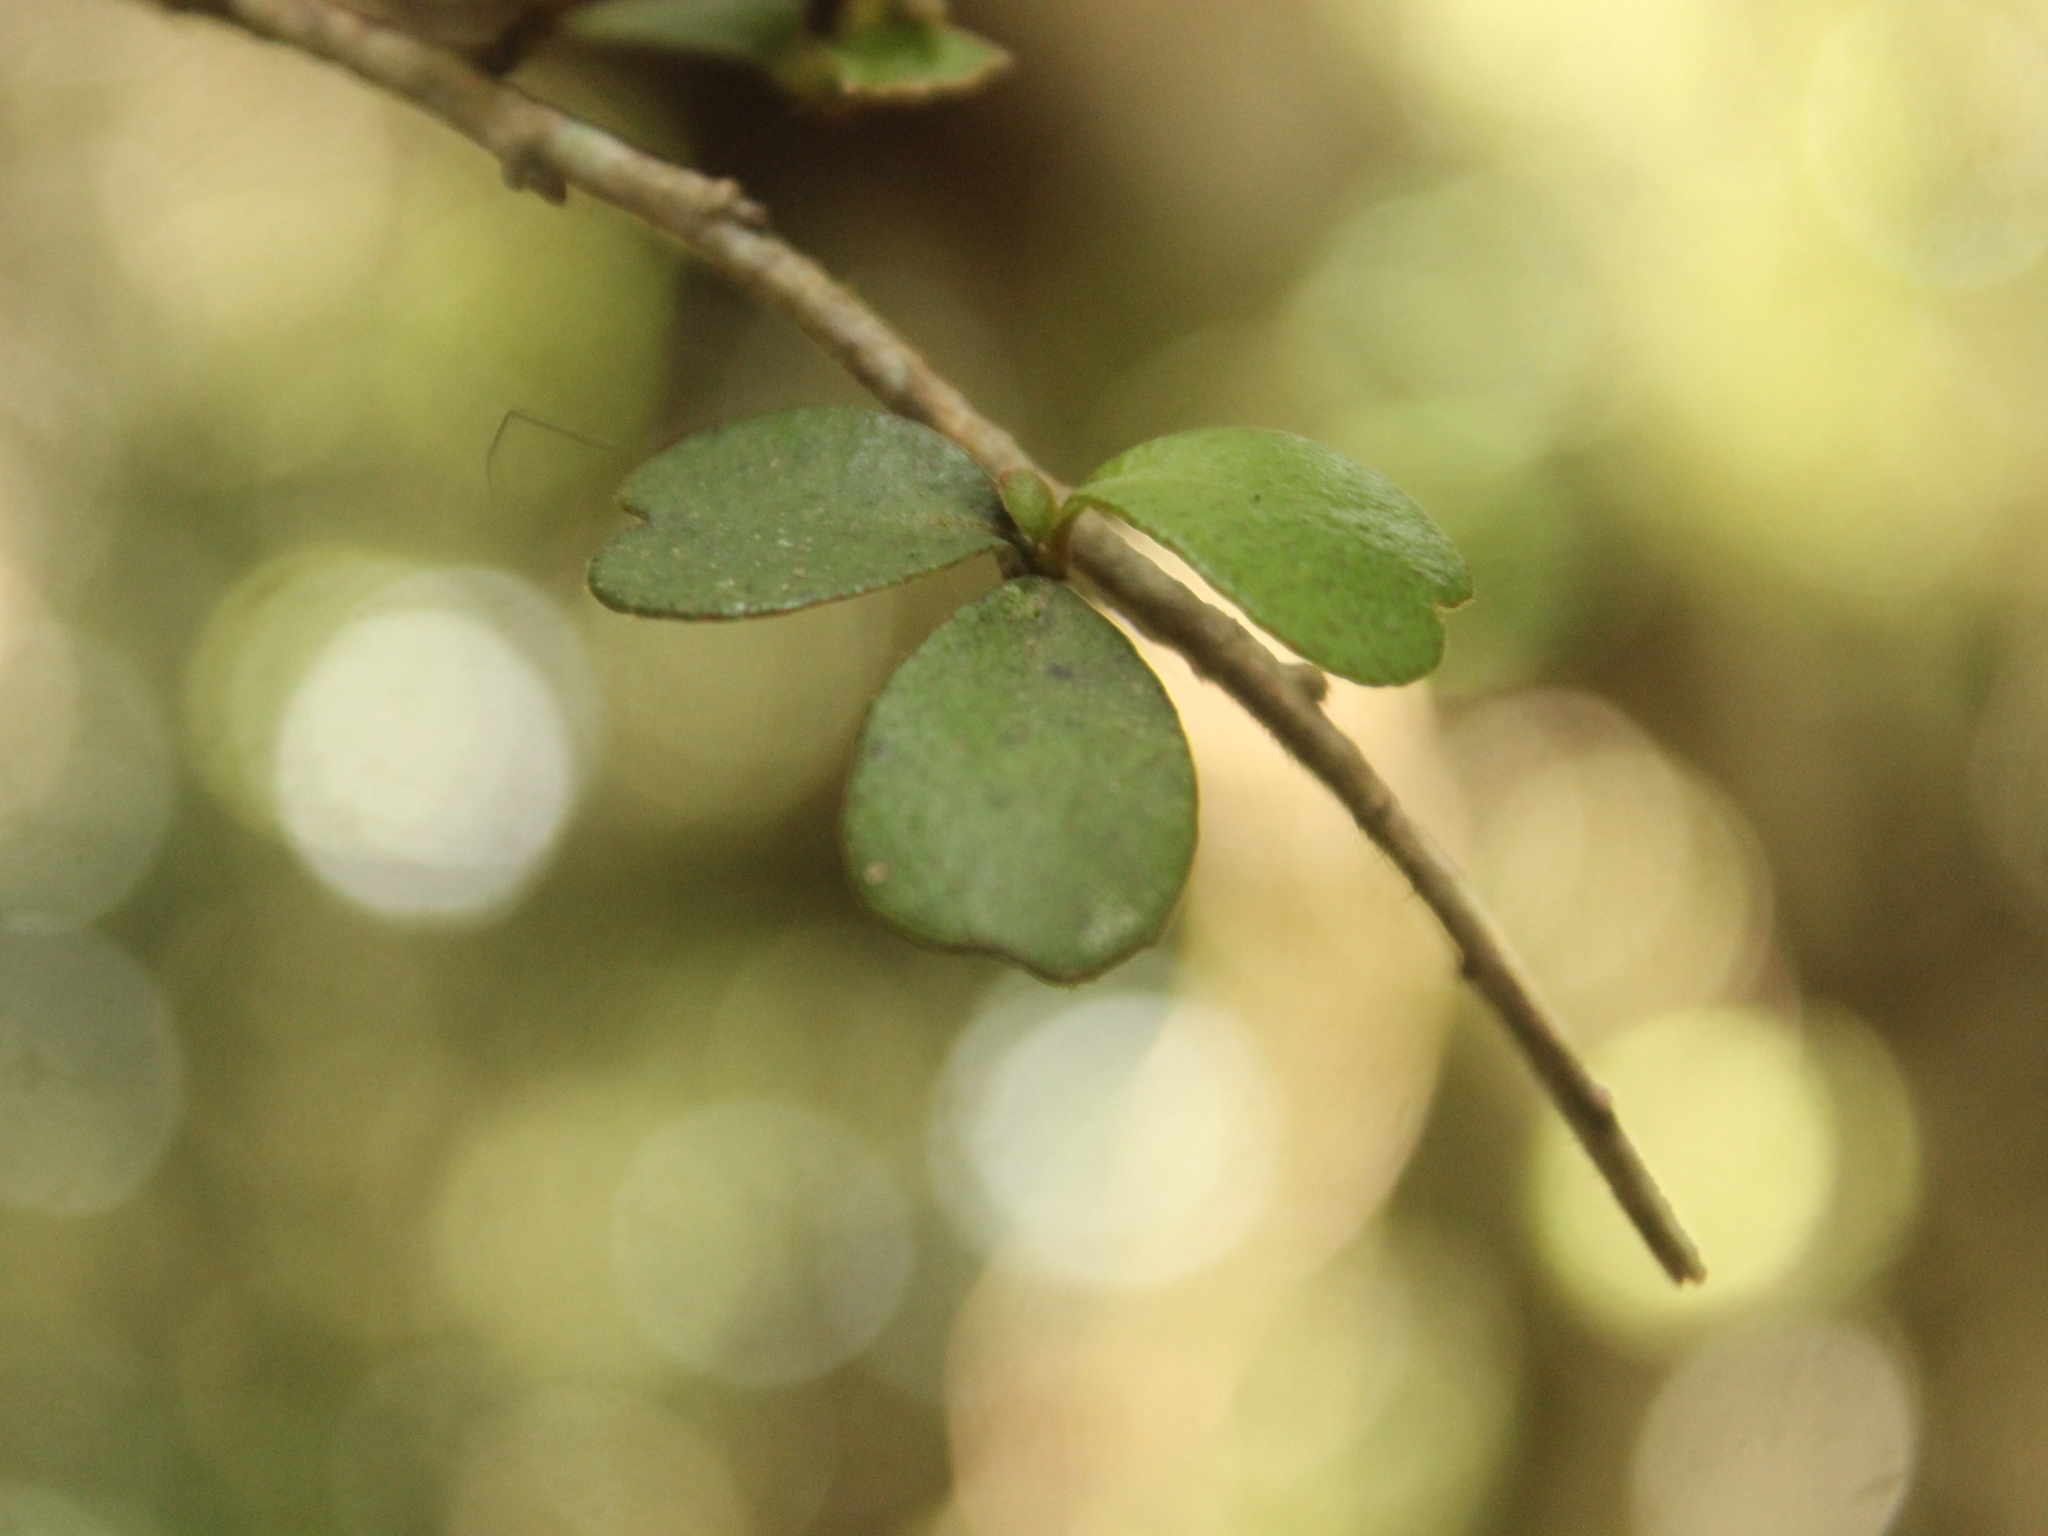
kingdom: Plantae
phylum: Tracheophyta
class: Magnoliopsida
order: Ericales
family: Primulaceae
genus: Myrsine
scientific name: Myrsine divaricata
